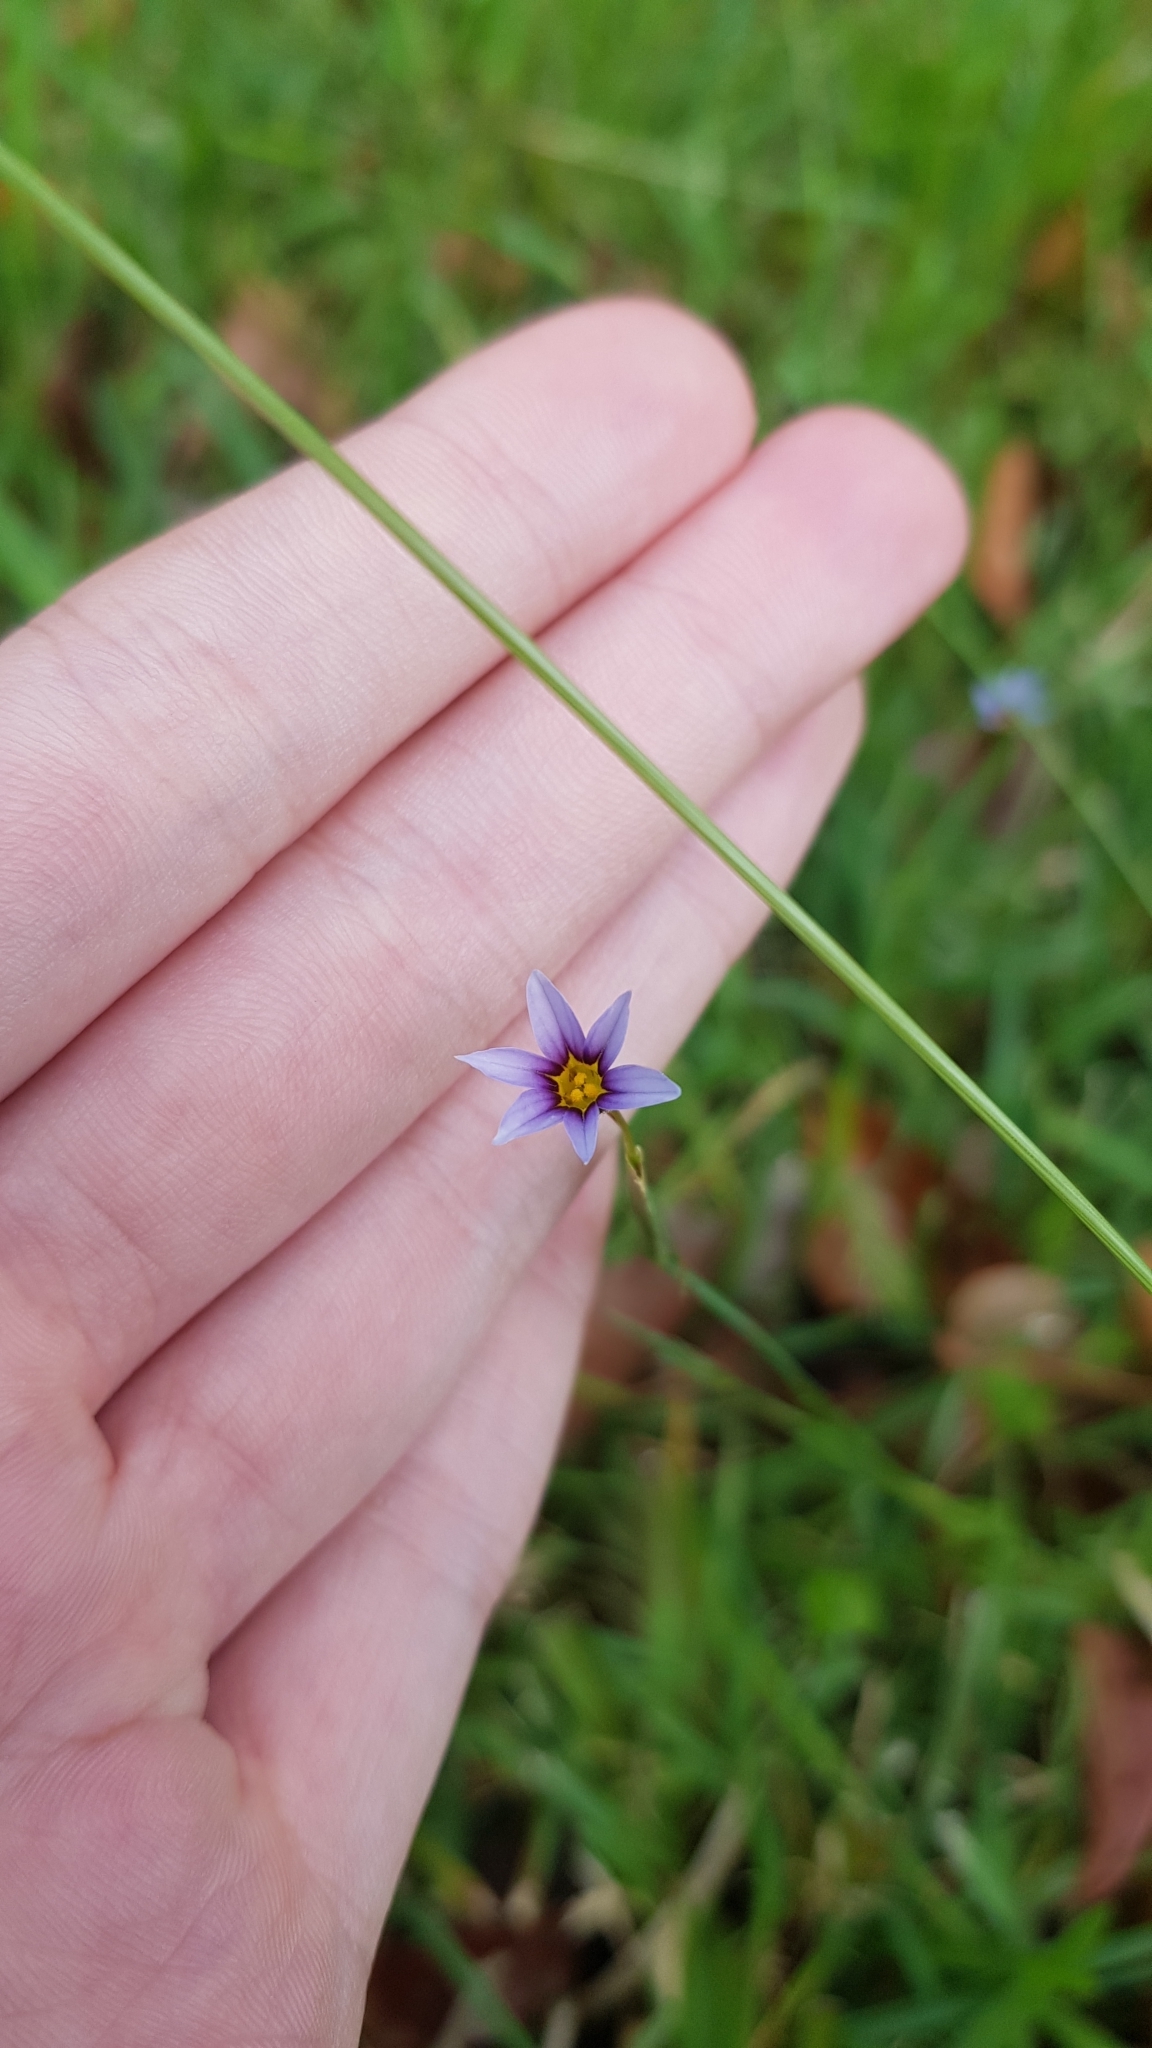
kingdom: Plantae
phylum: Tracheophyta
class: Liliopsida
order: Asparagales
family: Iridaceae
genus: Sisyrinchium
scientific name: Sisyrinchium micranthum
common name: Bermuda pigroot
